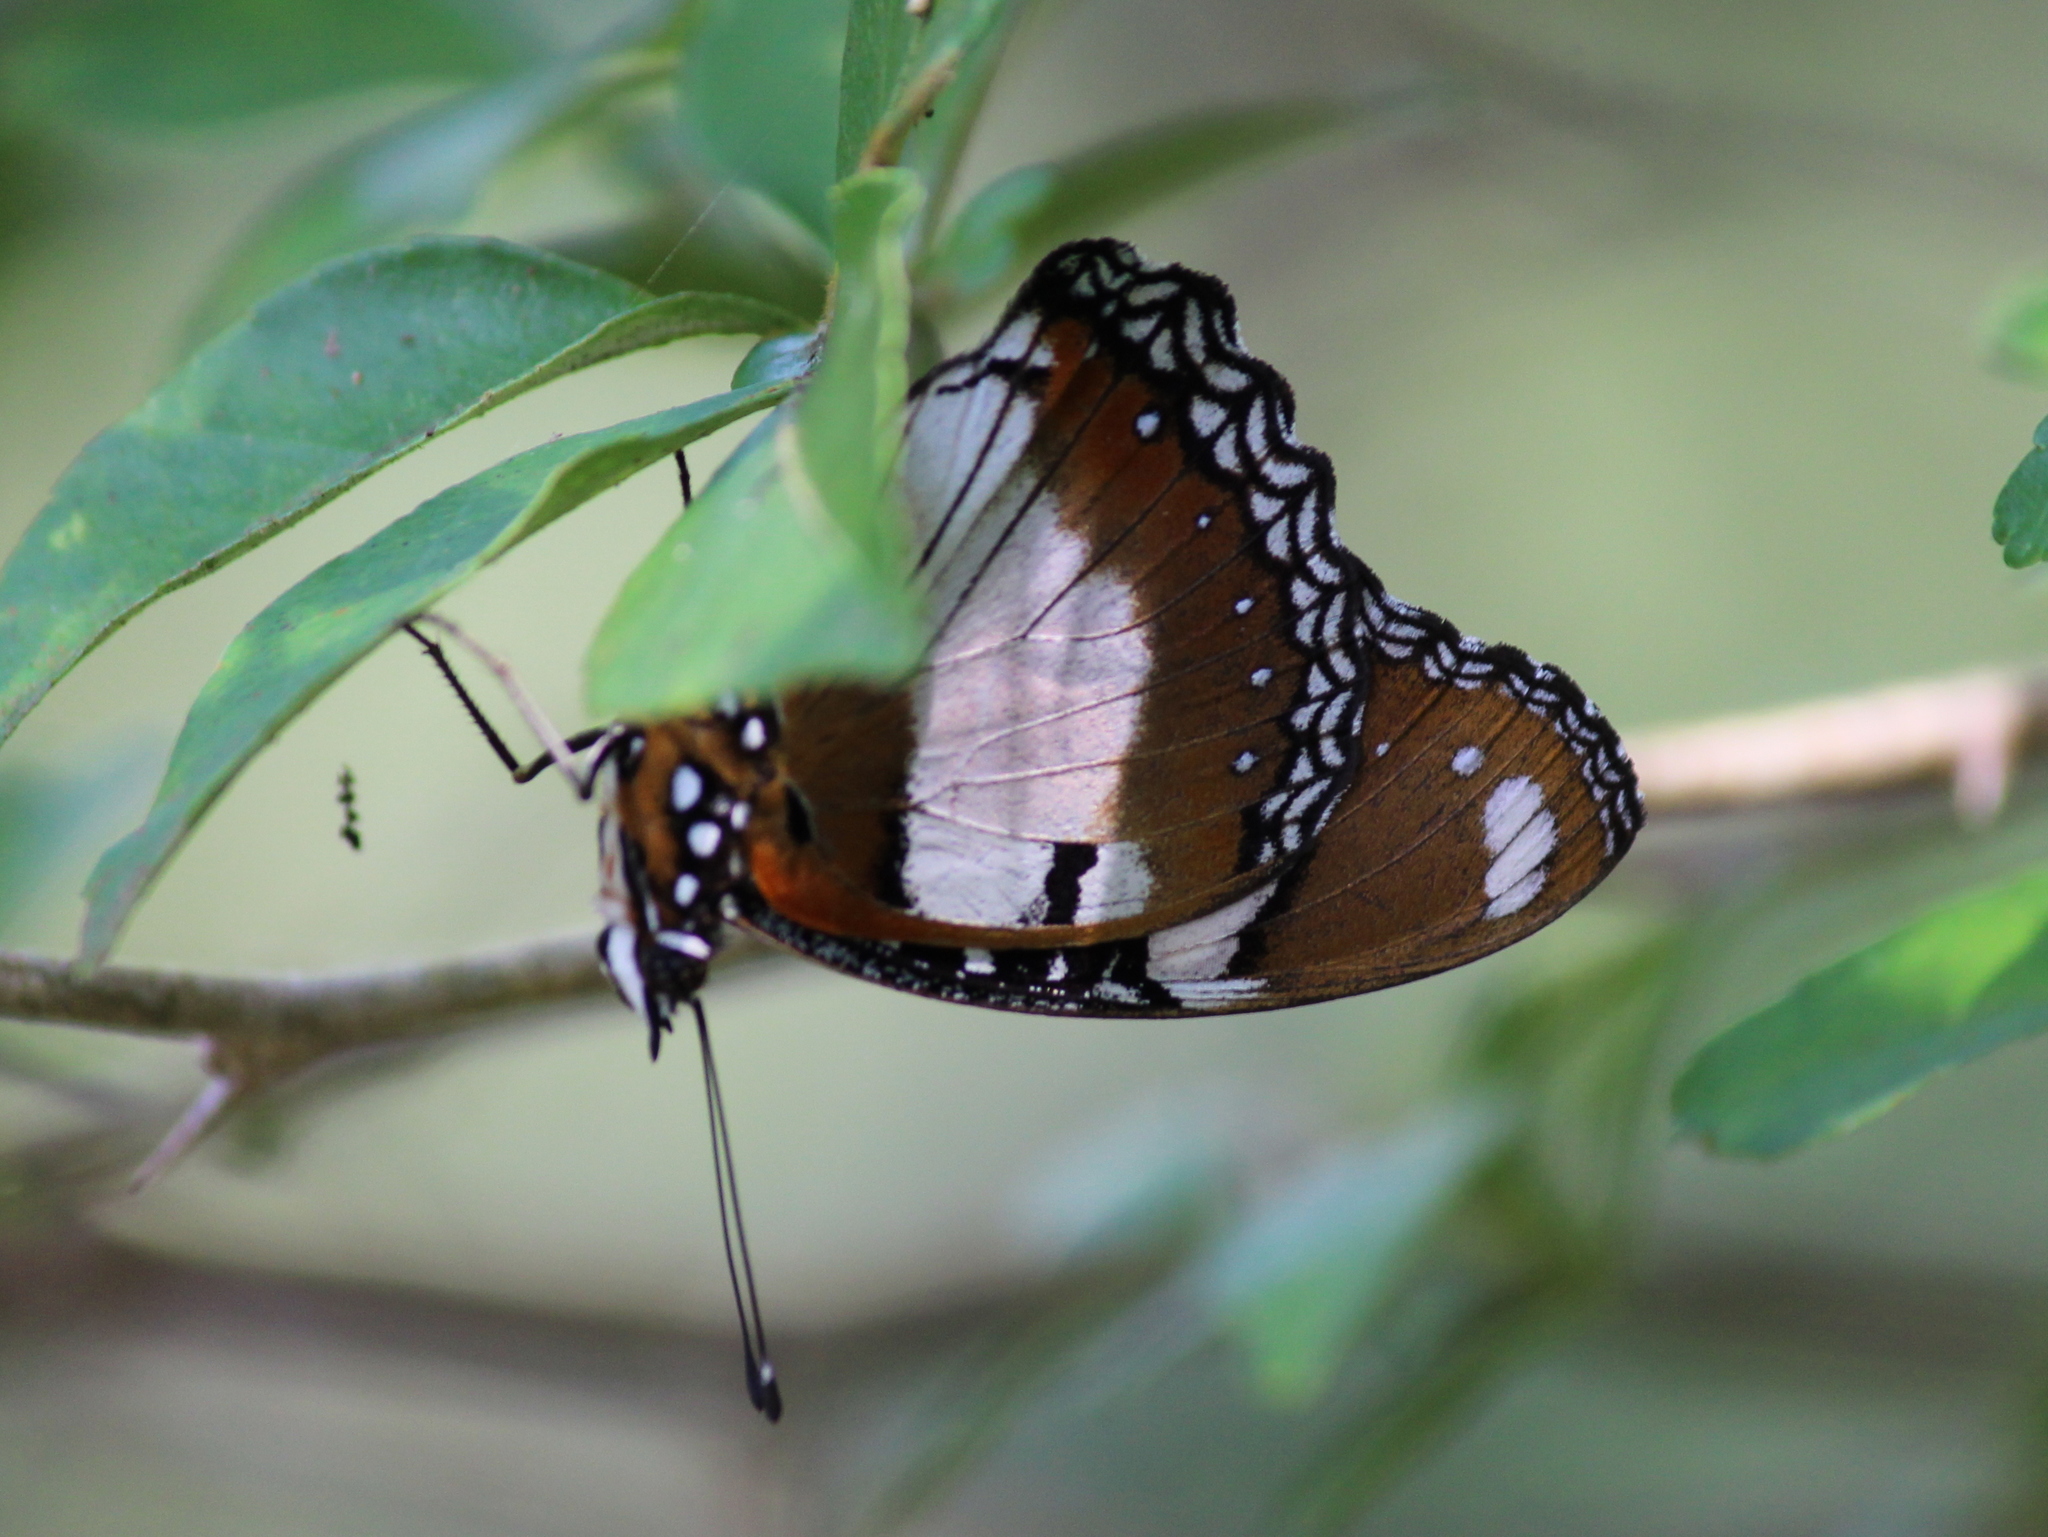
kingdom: Animalia
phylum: Arthropoda
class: Insecta
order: Lepidoptera
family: Nymphalidae
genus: Hypolimnas
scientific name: Hypolimnas misippus
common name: False plain tiger
